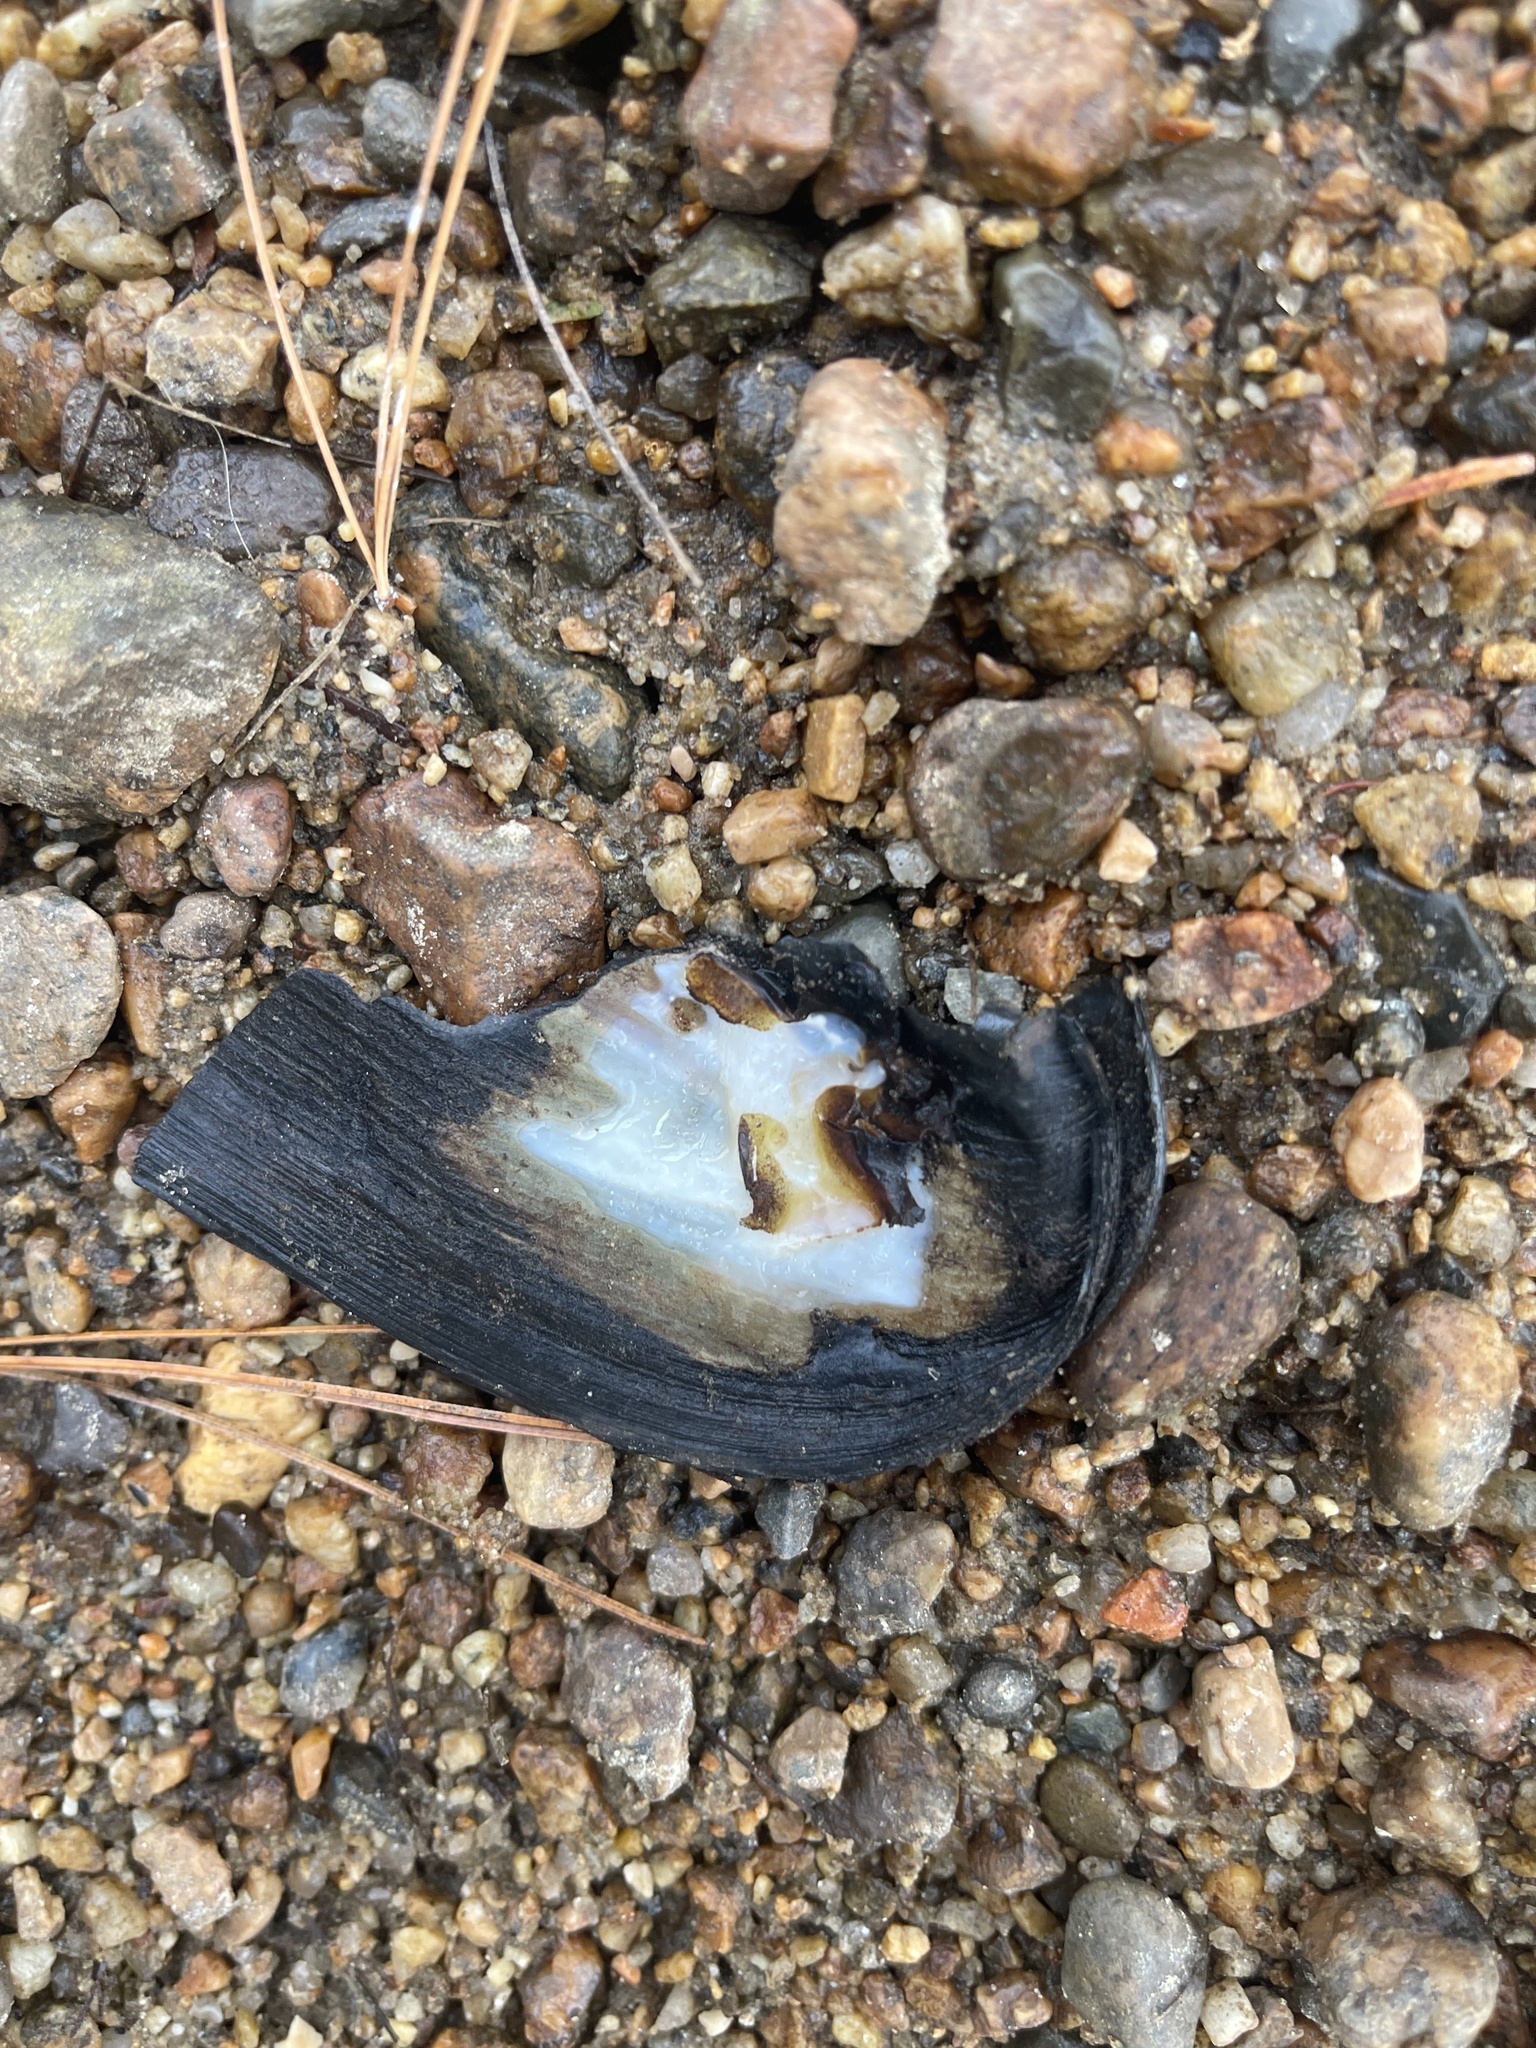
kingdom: Animalia
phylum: Mollusca
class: Bivalvia
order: Unionida
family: Unionidae
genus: Elliptio
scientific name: Elliptio complanata
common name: Eastern elliptio
